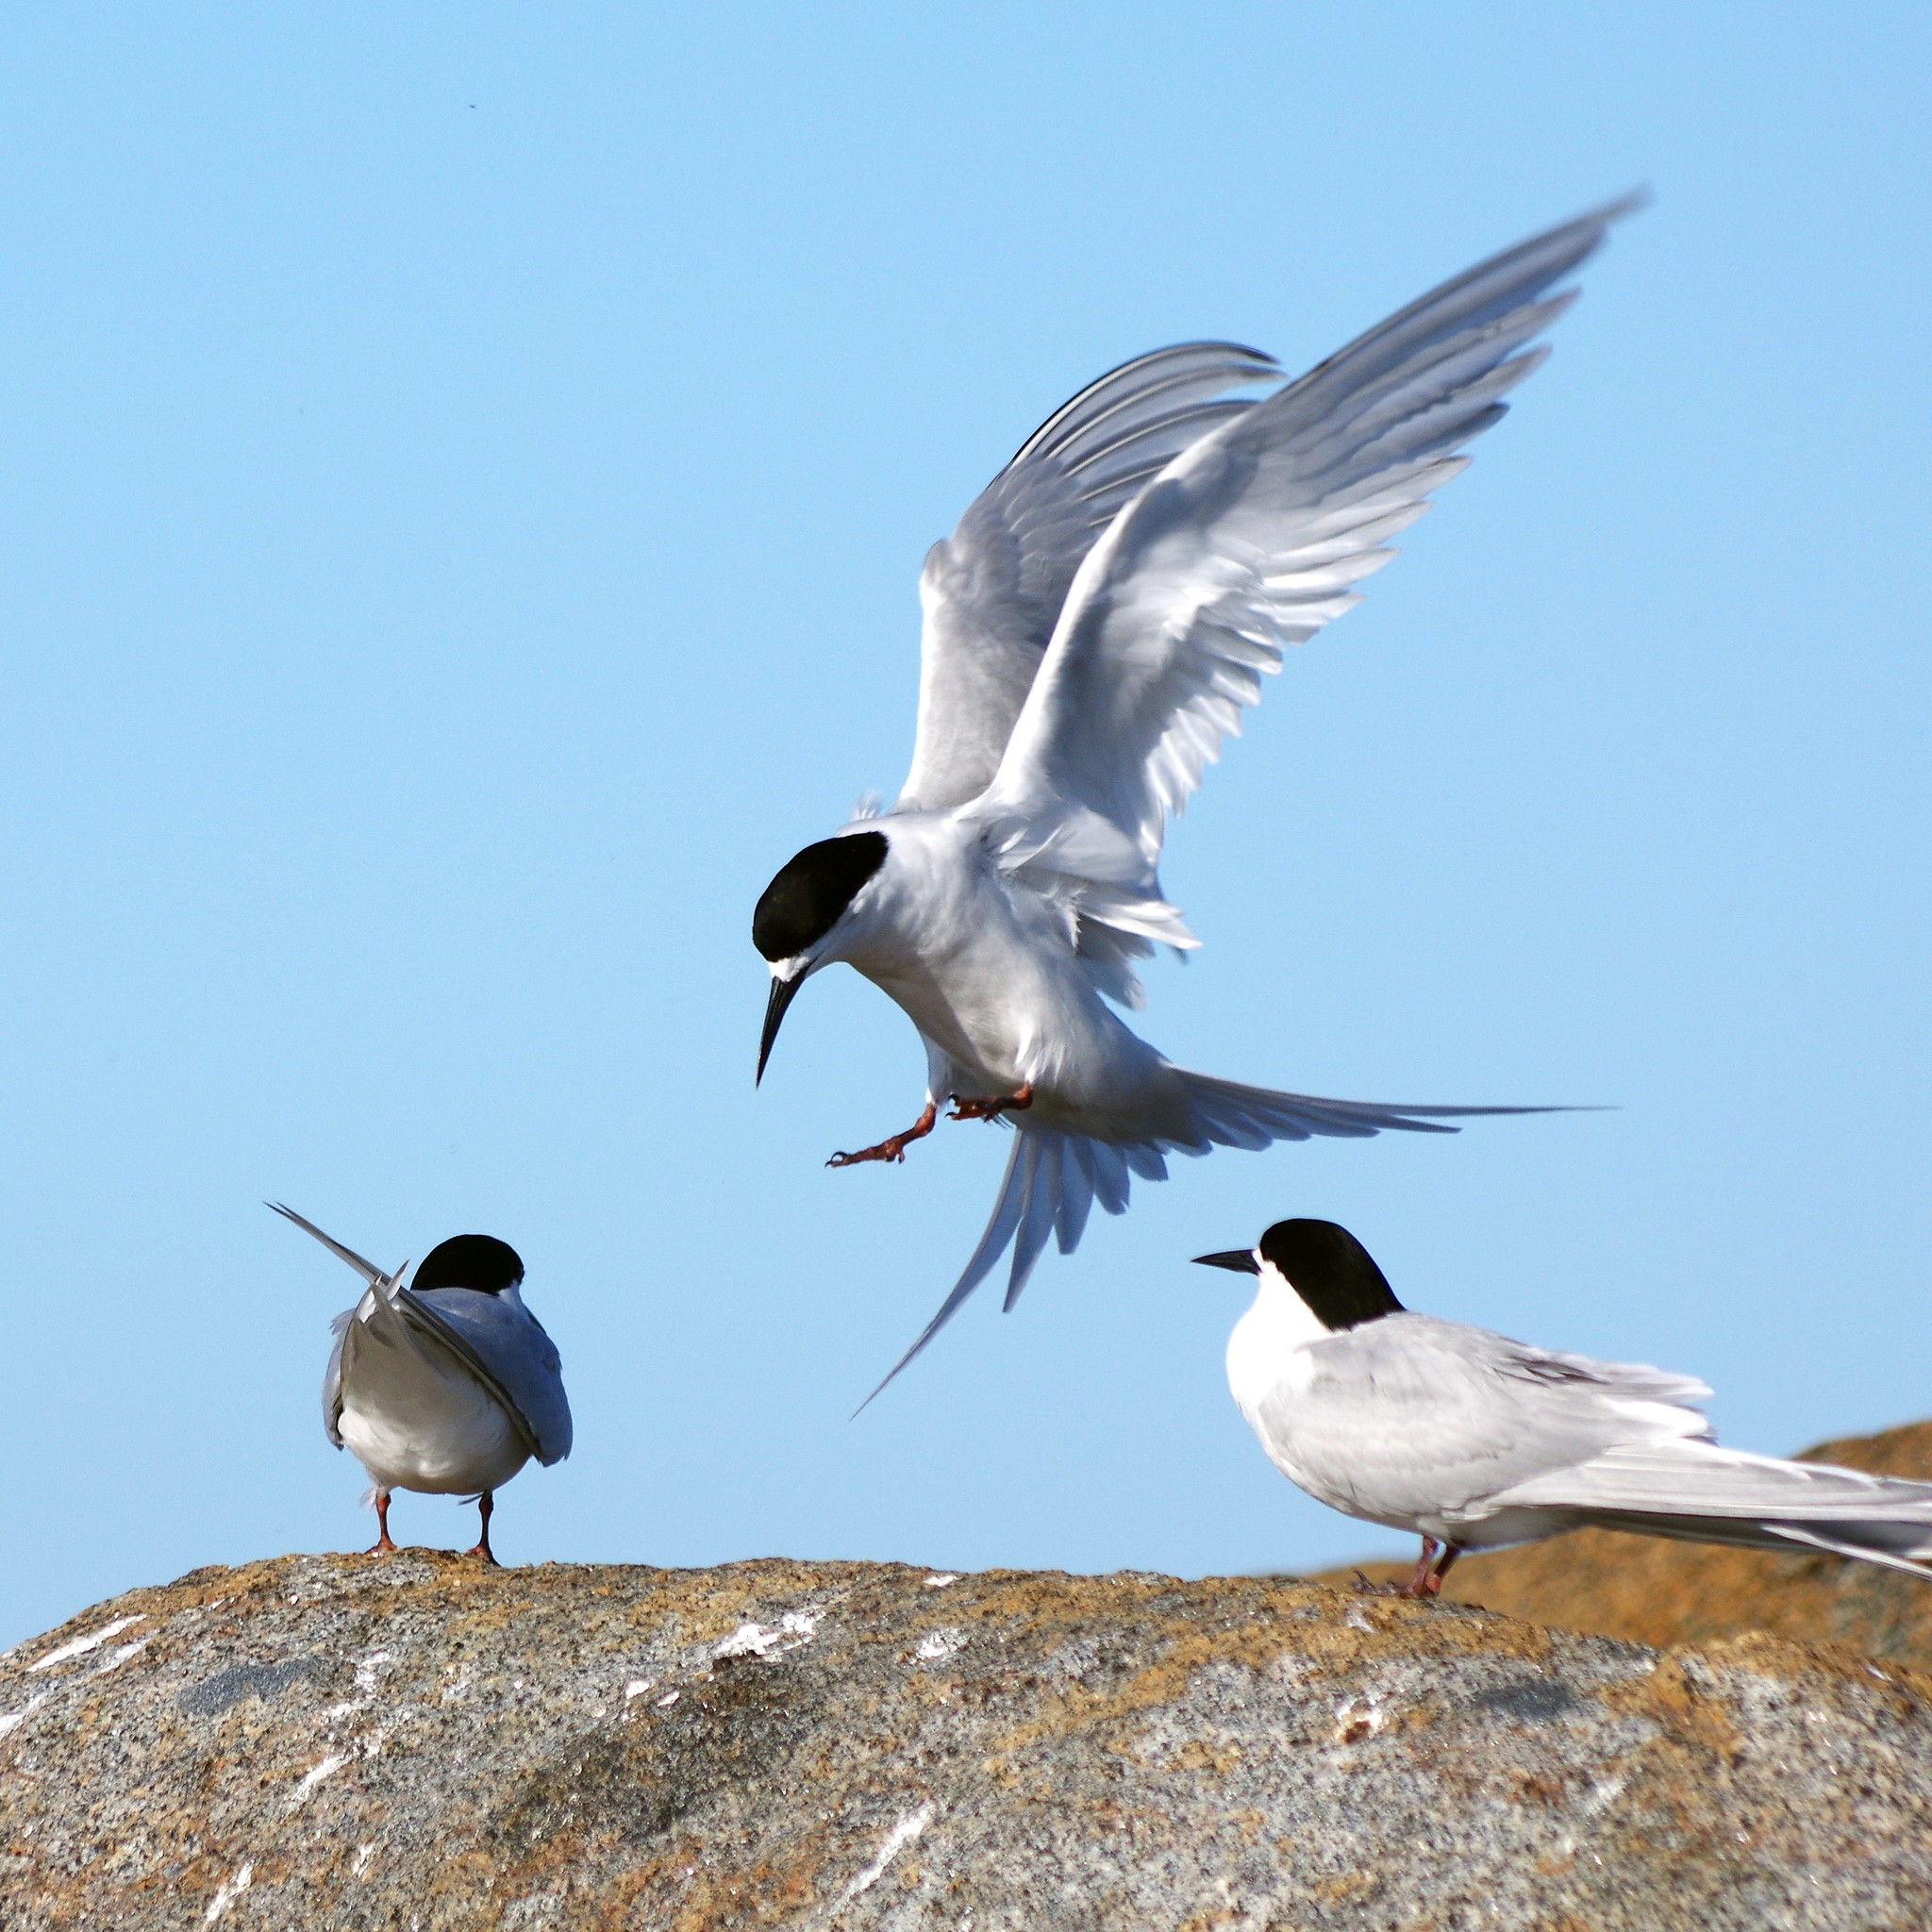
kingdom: Animalia
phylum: Chordata
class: Aves
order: Charadriiformes
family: Laridae
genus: Sterna
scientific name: Sterna striata
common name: White-fronted tern
